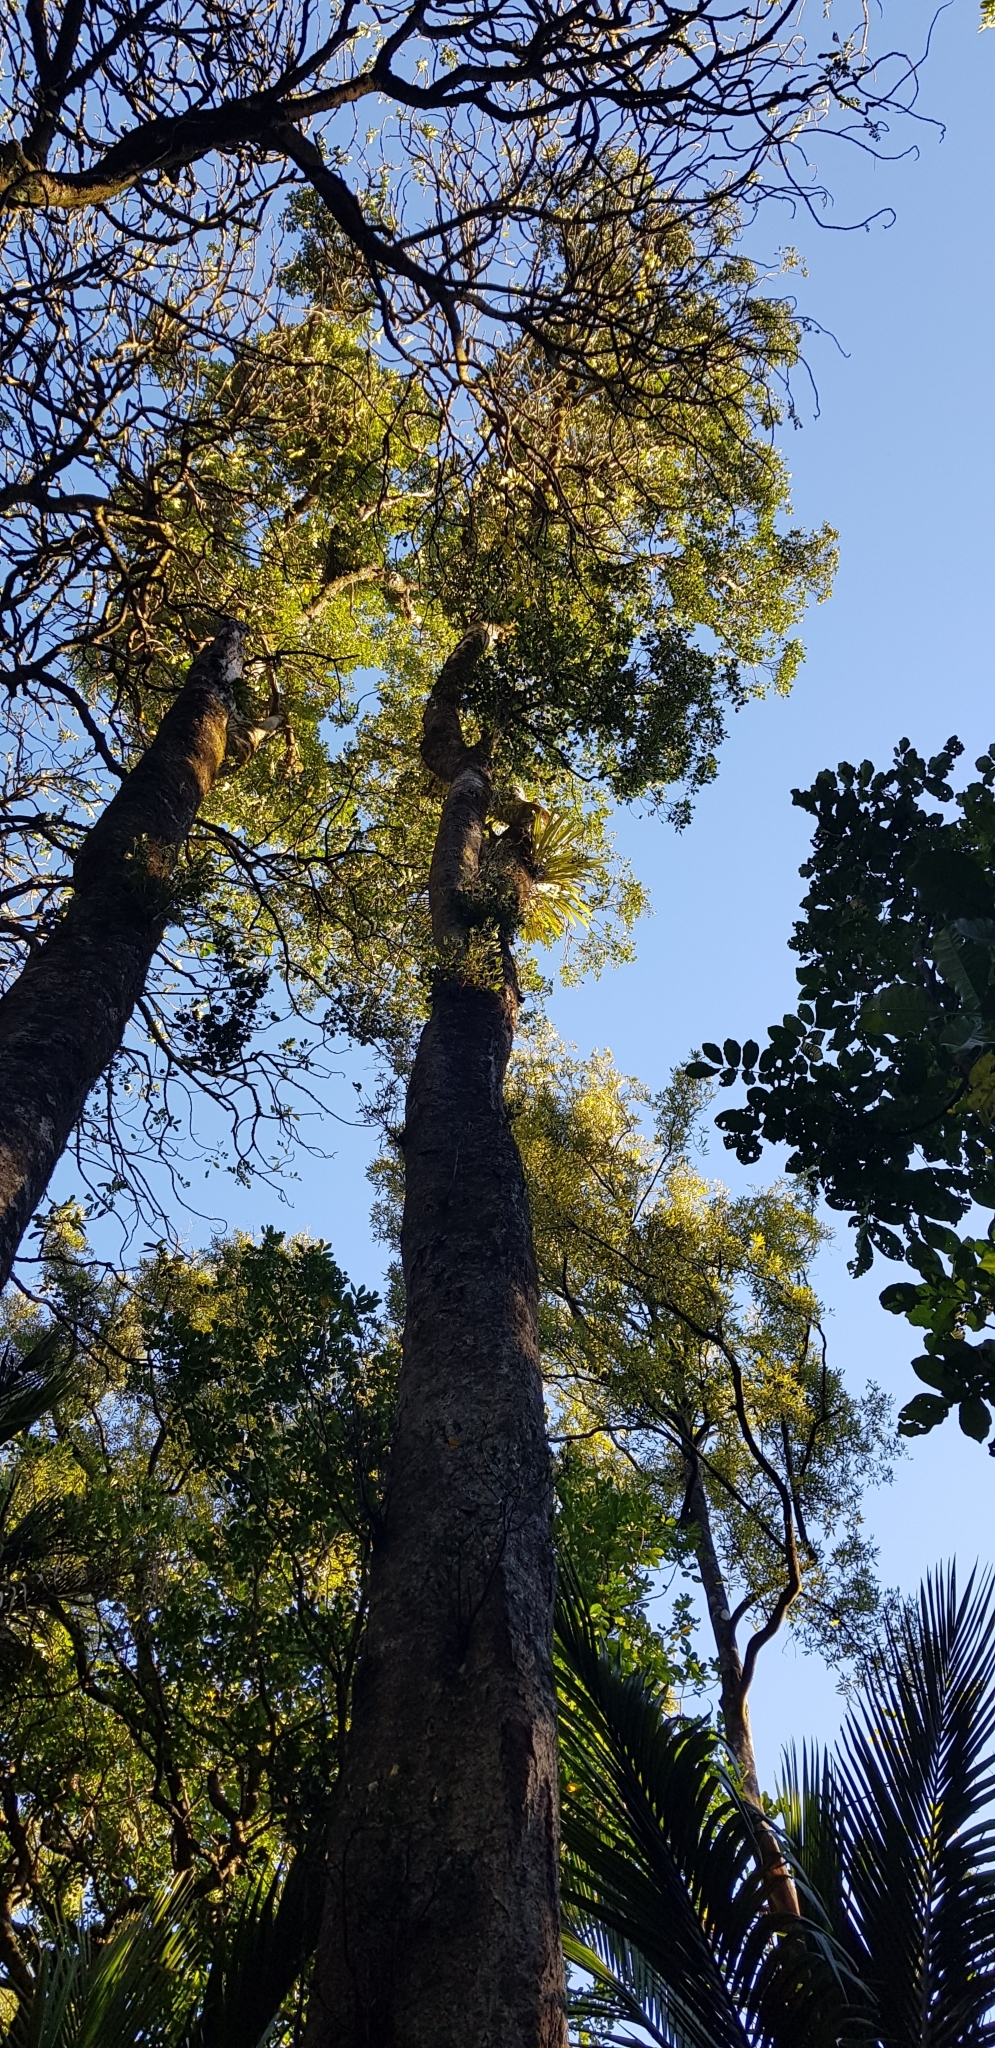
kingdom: Plantae
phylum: Tracheophyta
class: Magnoliopsida
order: Laurales
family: Atherospermataceae
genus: Laurelia
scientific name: Laurelia novae-zelandiae
